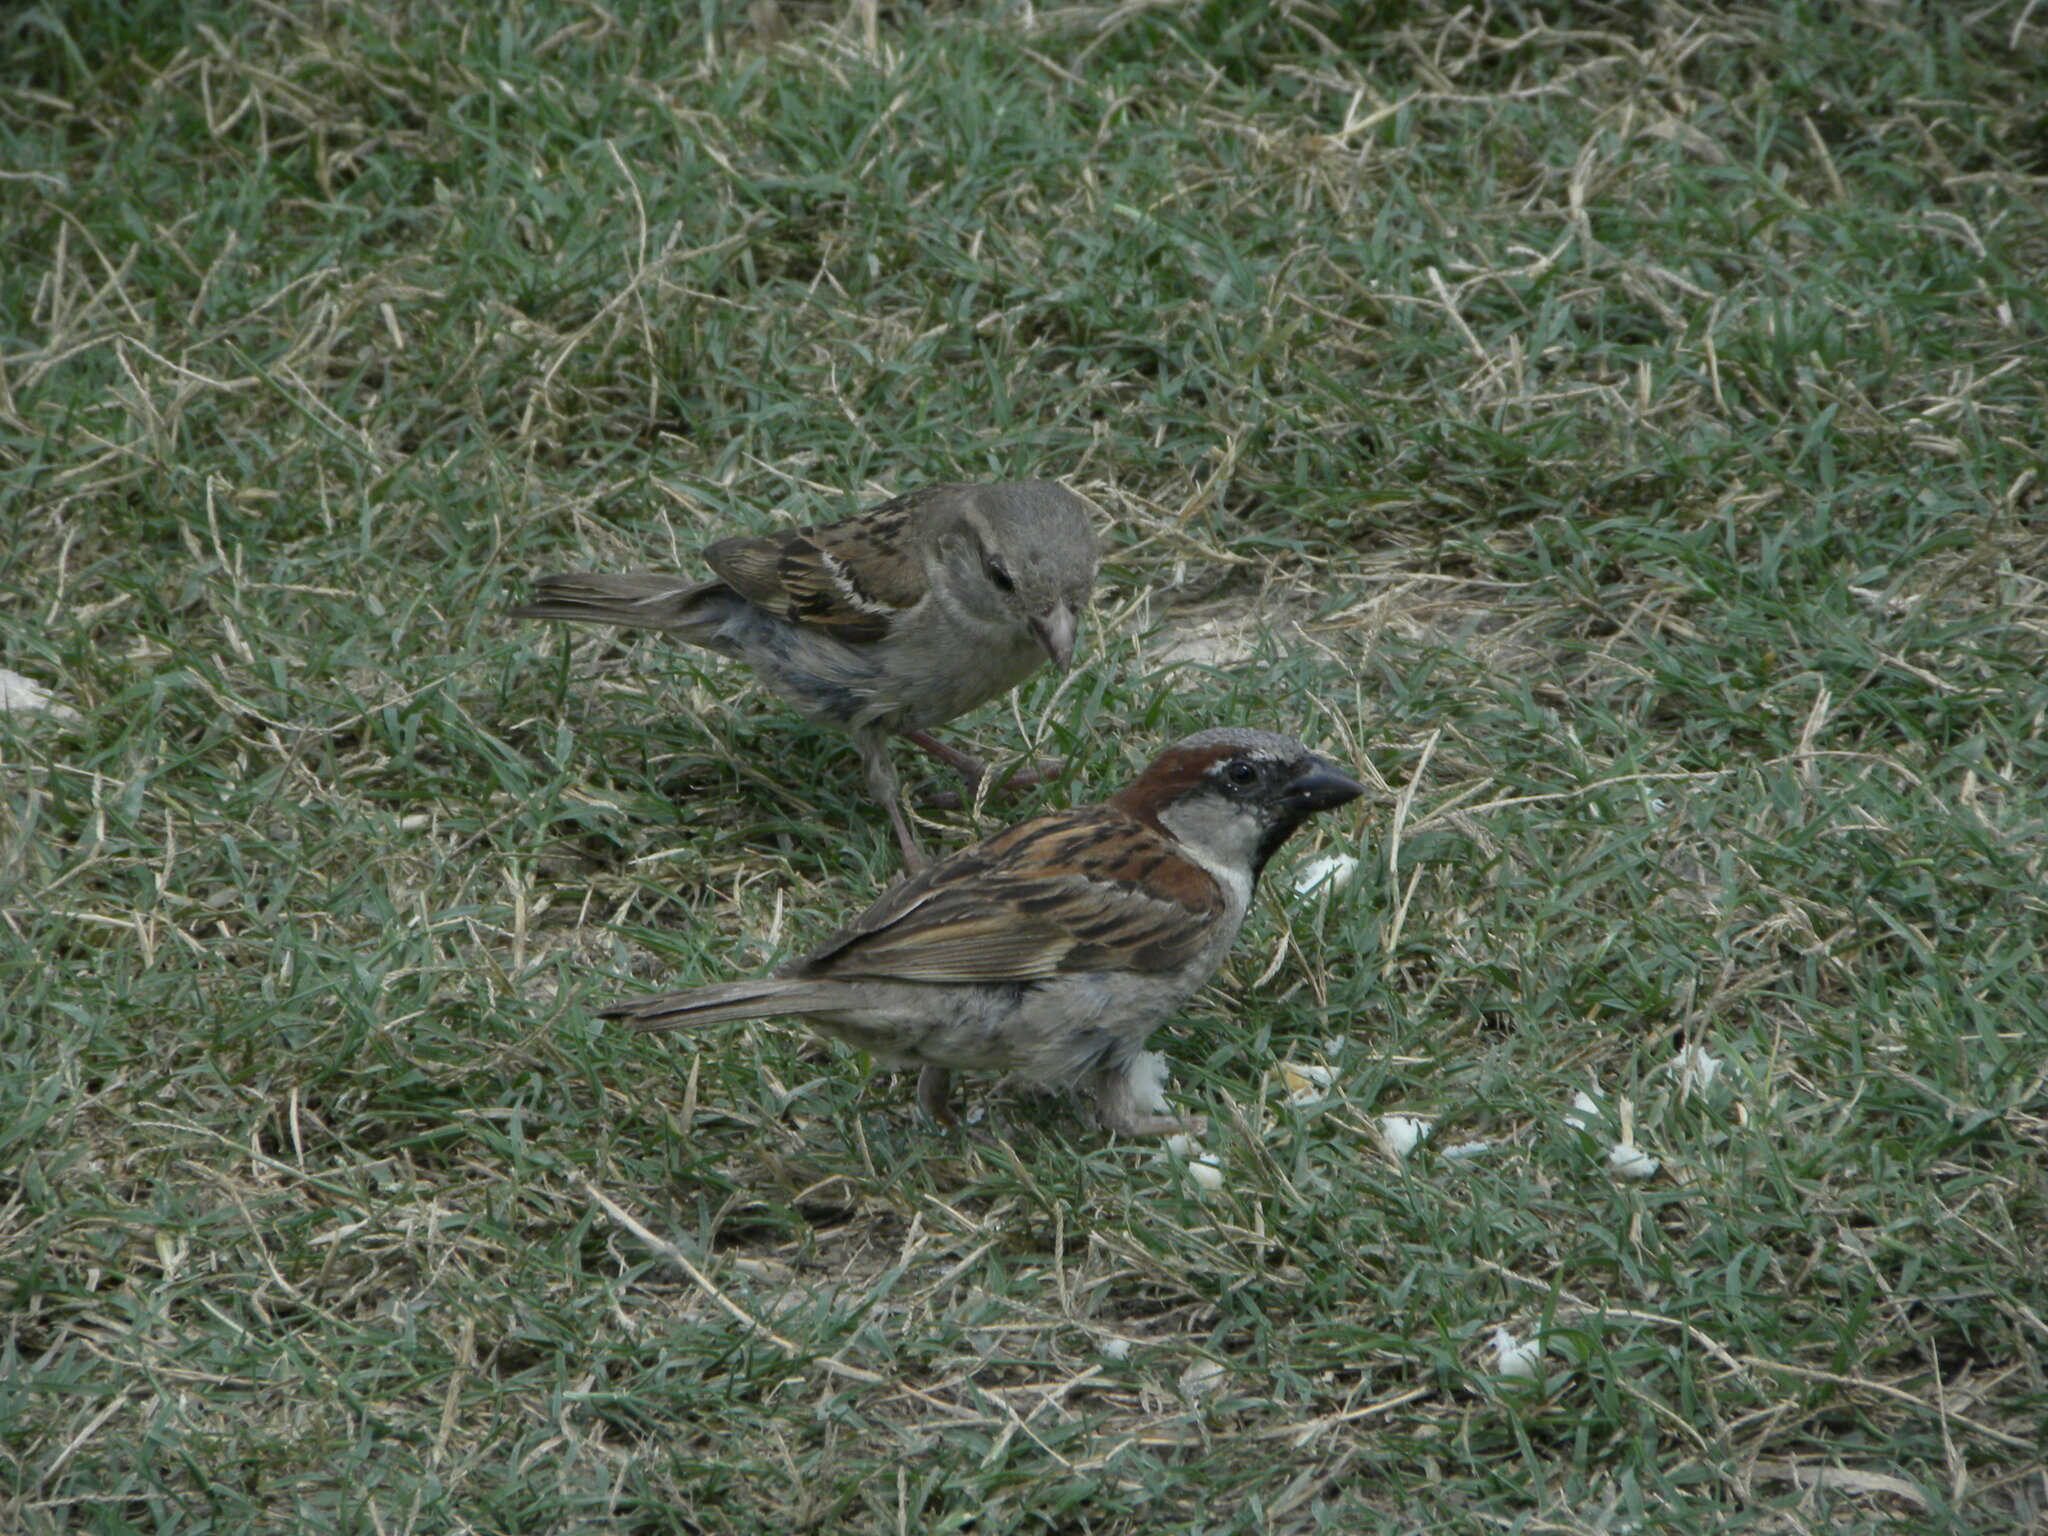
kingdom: Animalia
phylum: Chordata
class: Aves
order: Passeriformes
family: Passeridae
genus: Passer
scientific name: Passer domesticus
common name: House sparrow
